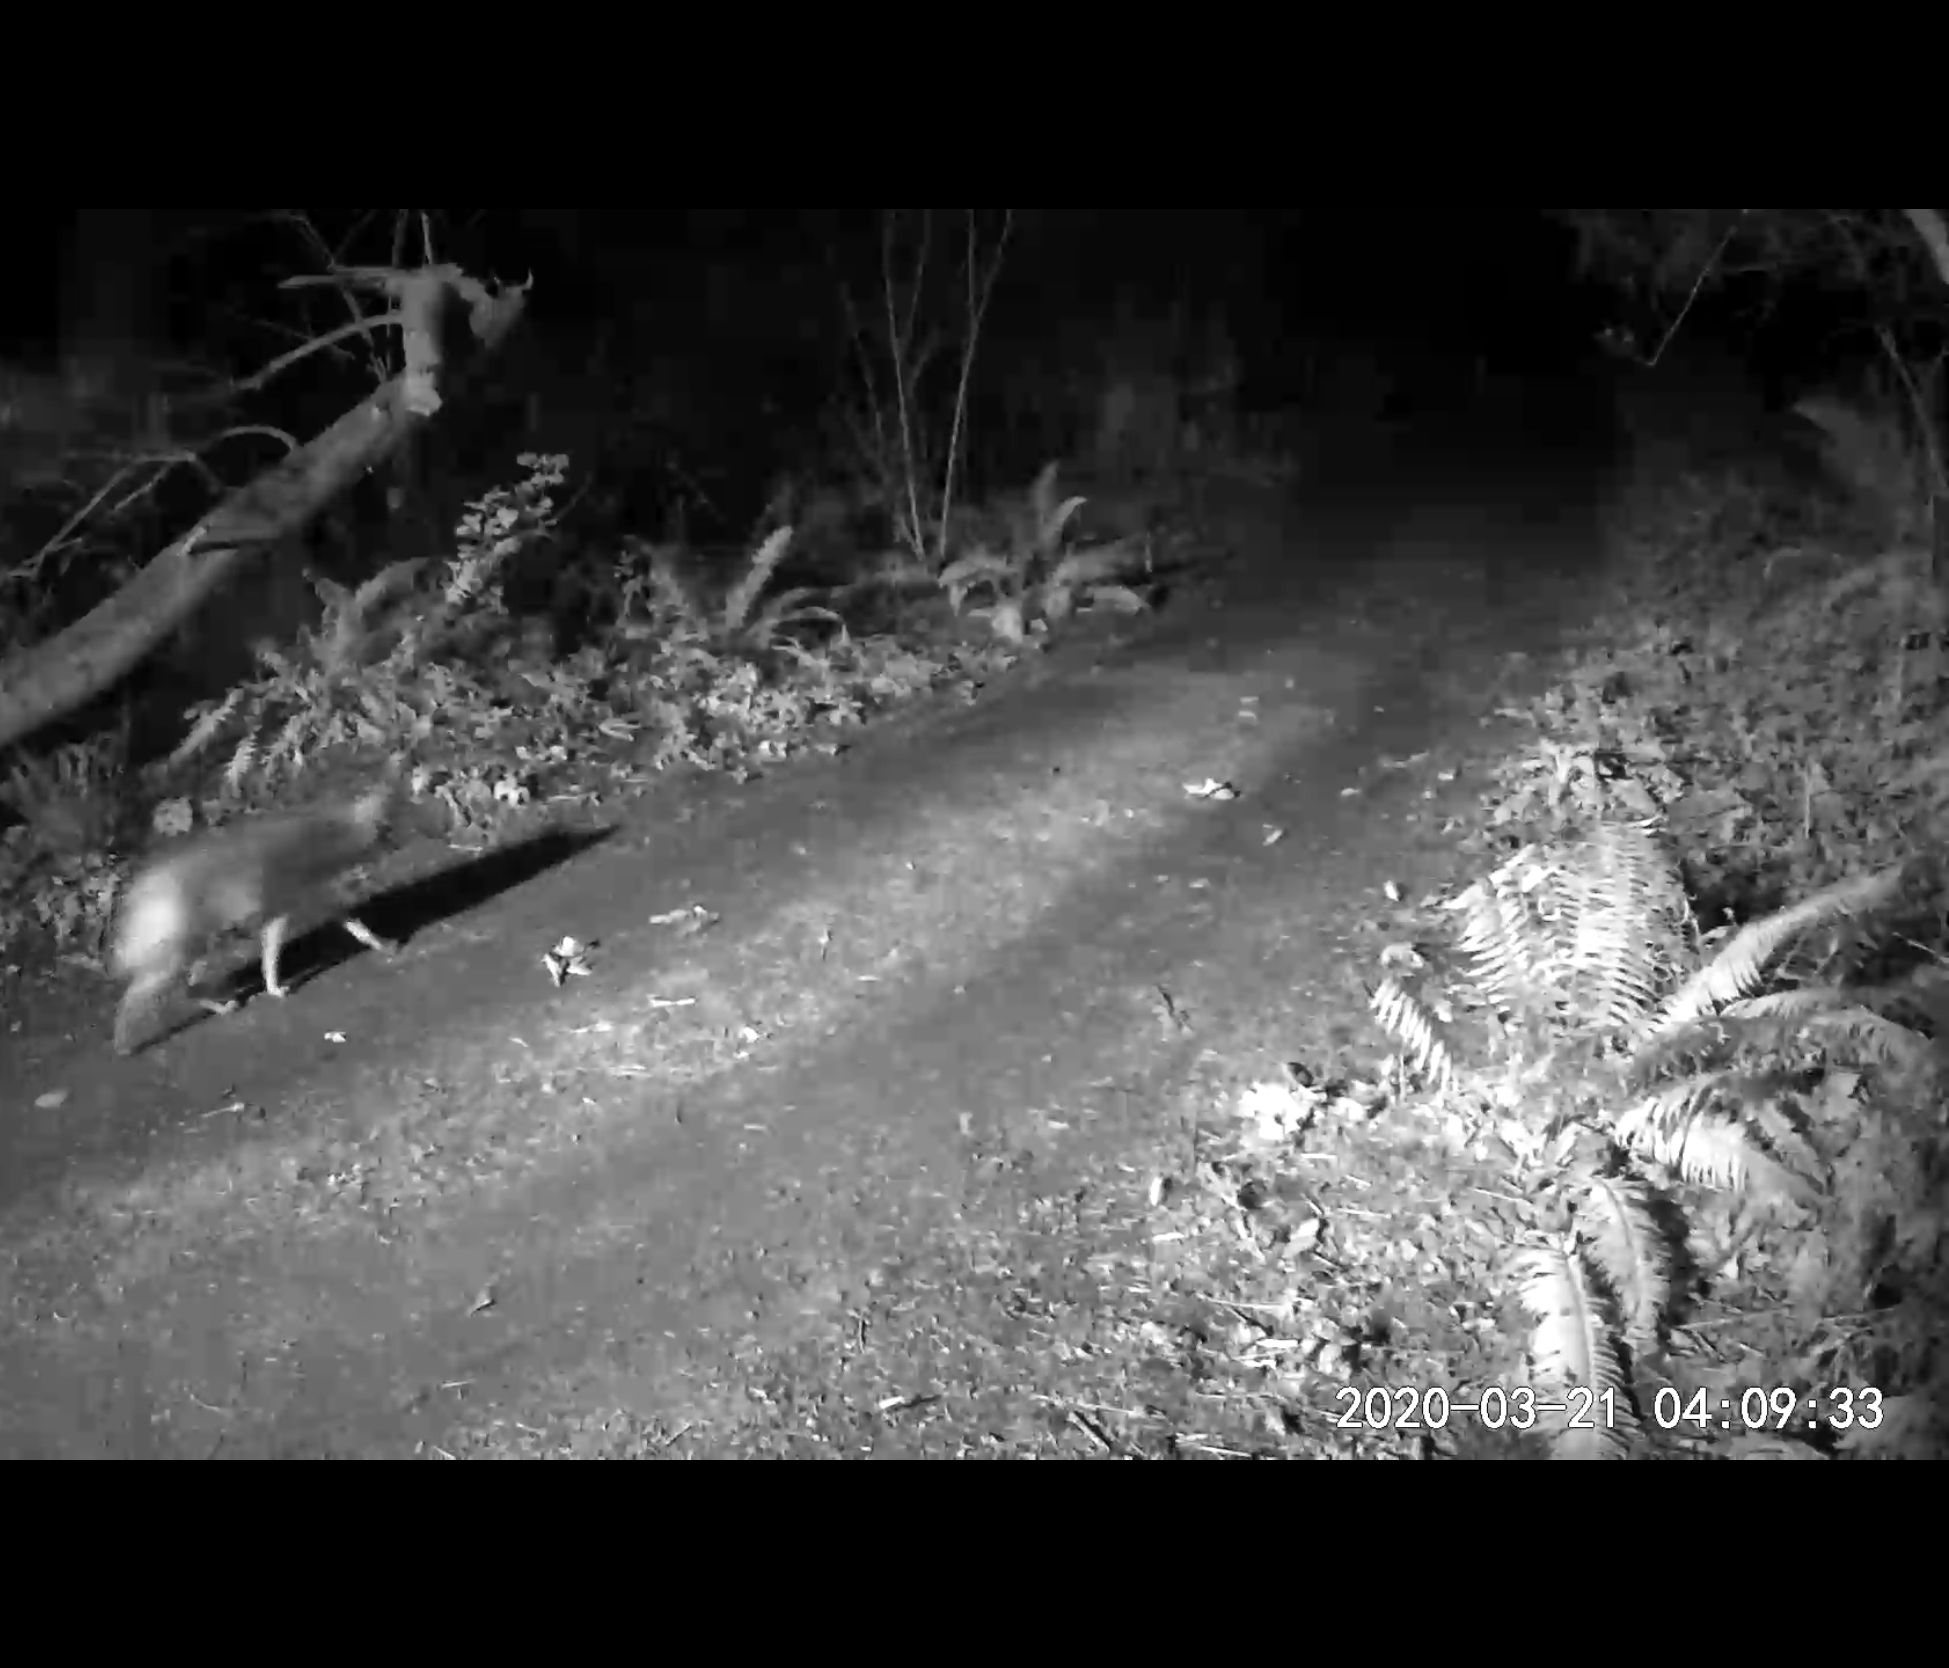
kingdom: Animalia
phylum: Chordata
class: Mammalia
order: Carnivora
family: Canidae
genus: Canis
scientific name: Canis latrans
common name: Coyote
